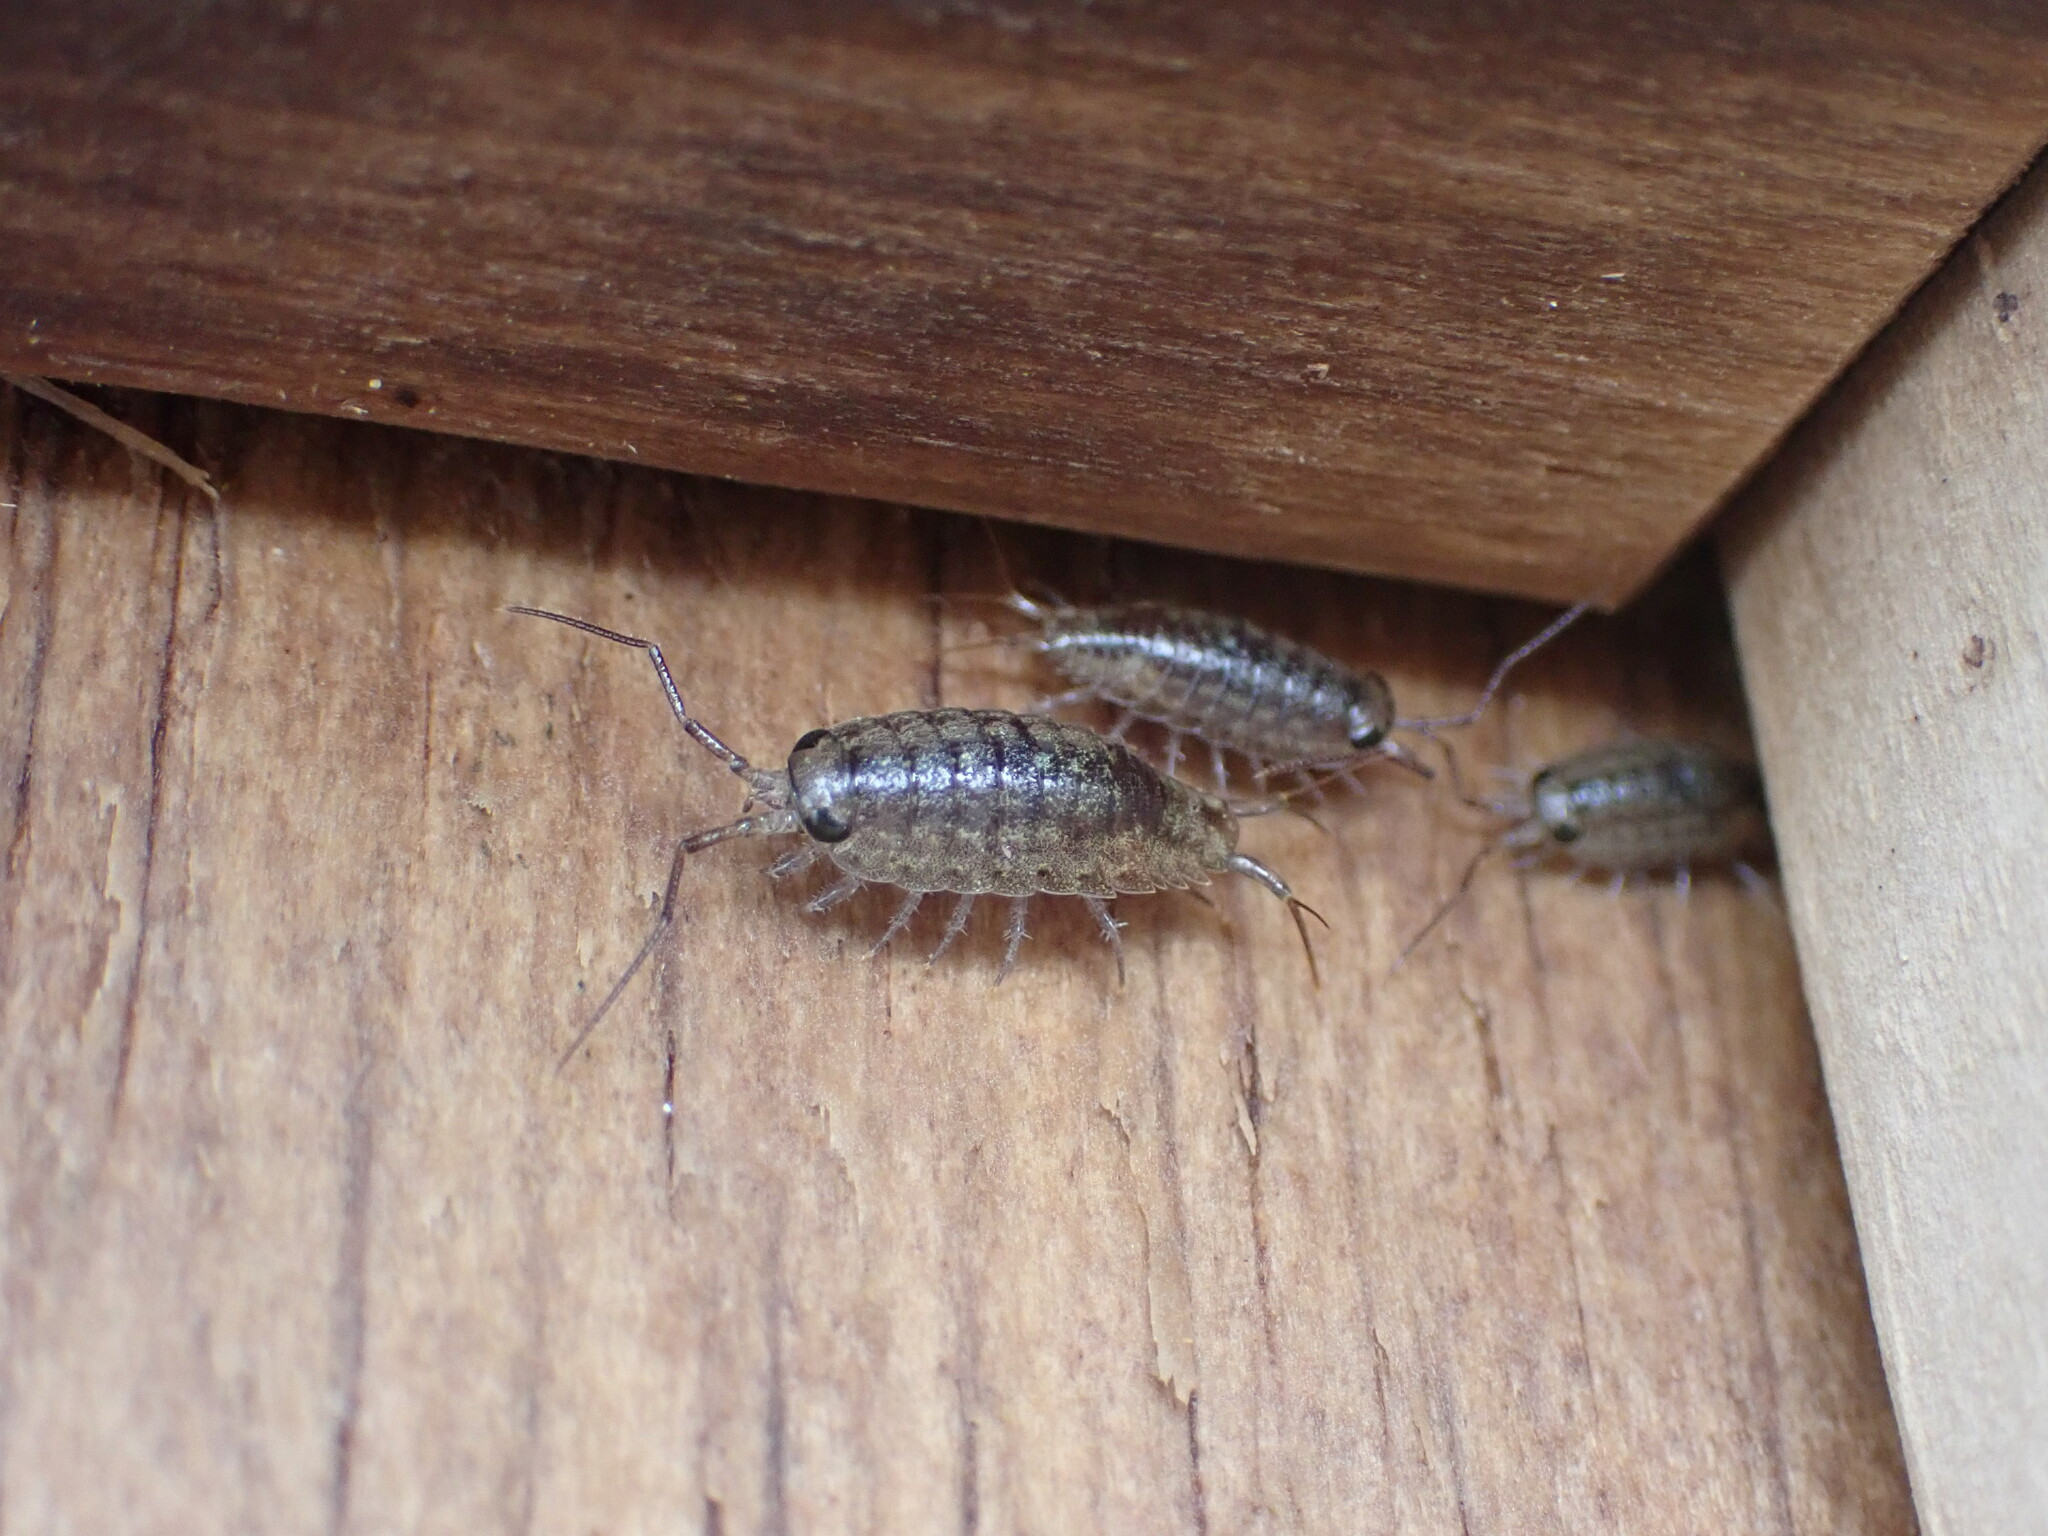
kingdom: Animalia
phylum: Arthropoda
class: Malacostraca
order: Isopoda
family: Ligiidae
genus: Ligia
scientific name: Ligia novizealandiae
